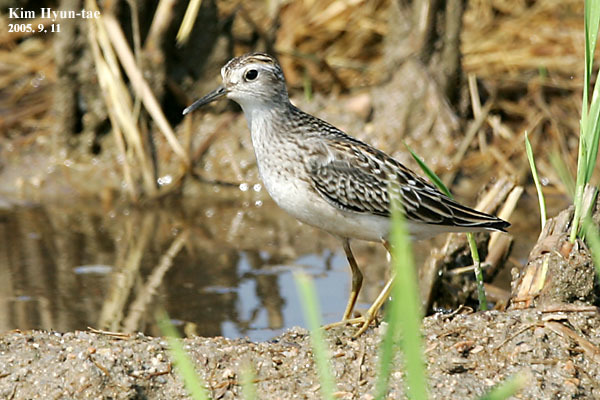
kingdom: Animalia
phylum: Chordata
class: Aves
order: Charadriiformes
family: Scolopacidae
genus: Calidris
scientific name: Calidris subminuta
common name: Long-toed stint
